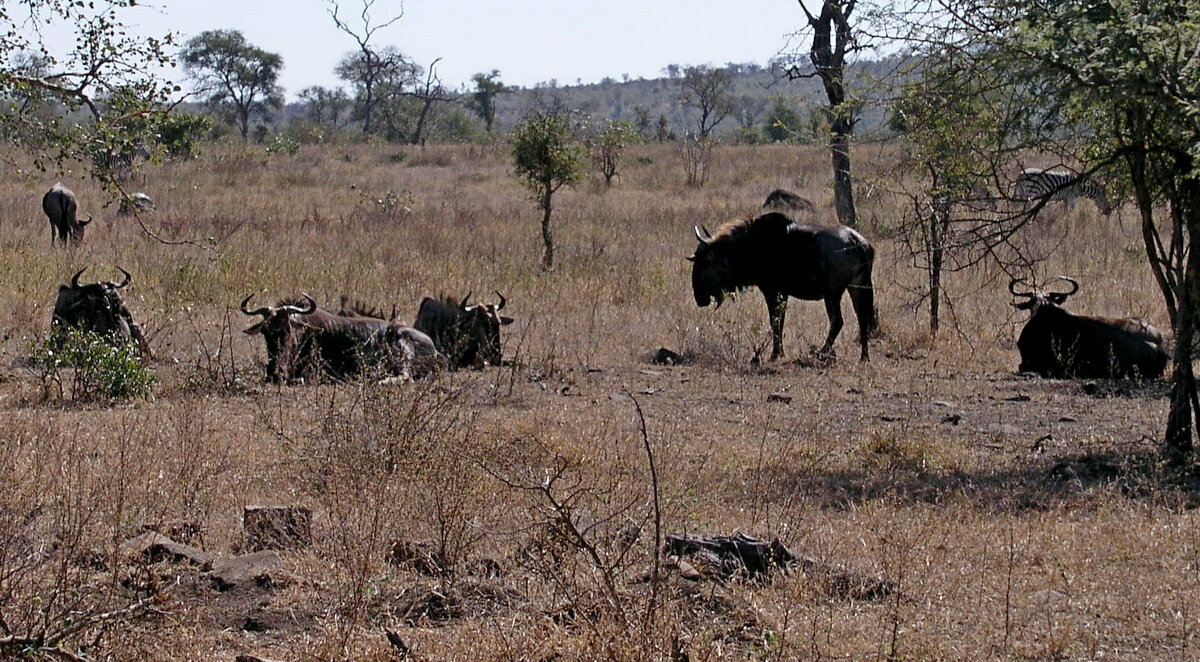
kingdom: Animalia
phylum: Chordata
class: Mammalia
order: Artiodactyla
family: Bovidae
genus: Connochaetes
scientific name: Connochaetes taurinus
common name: Blue wildebeest
